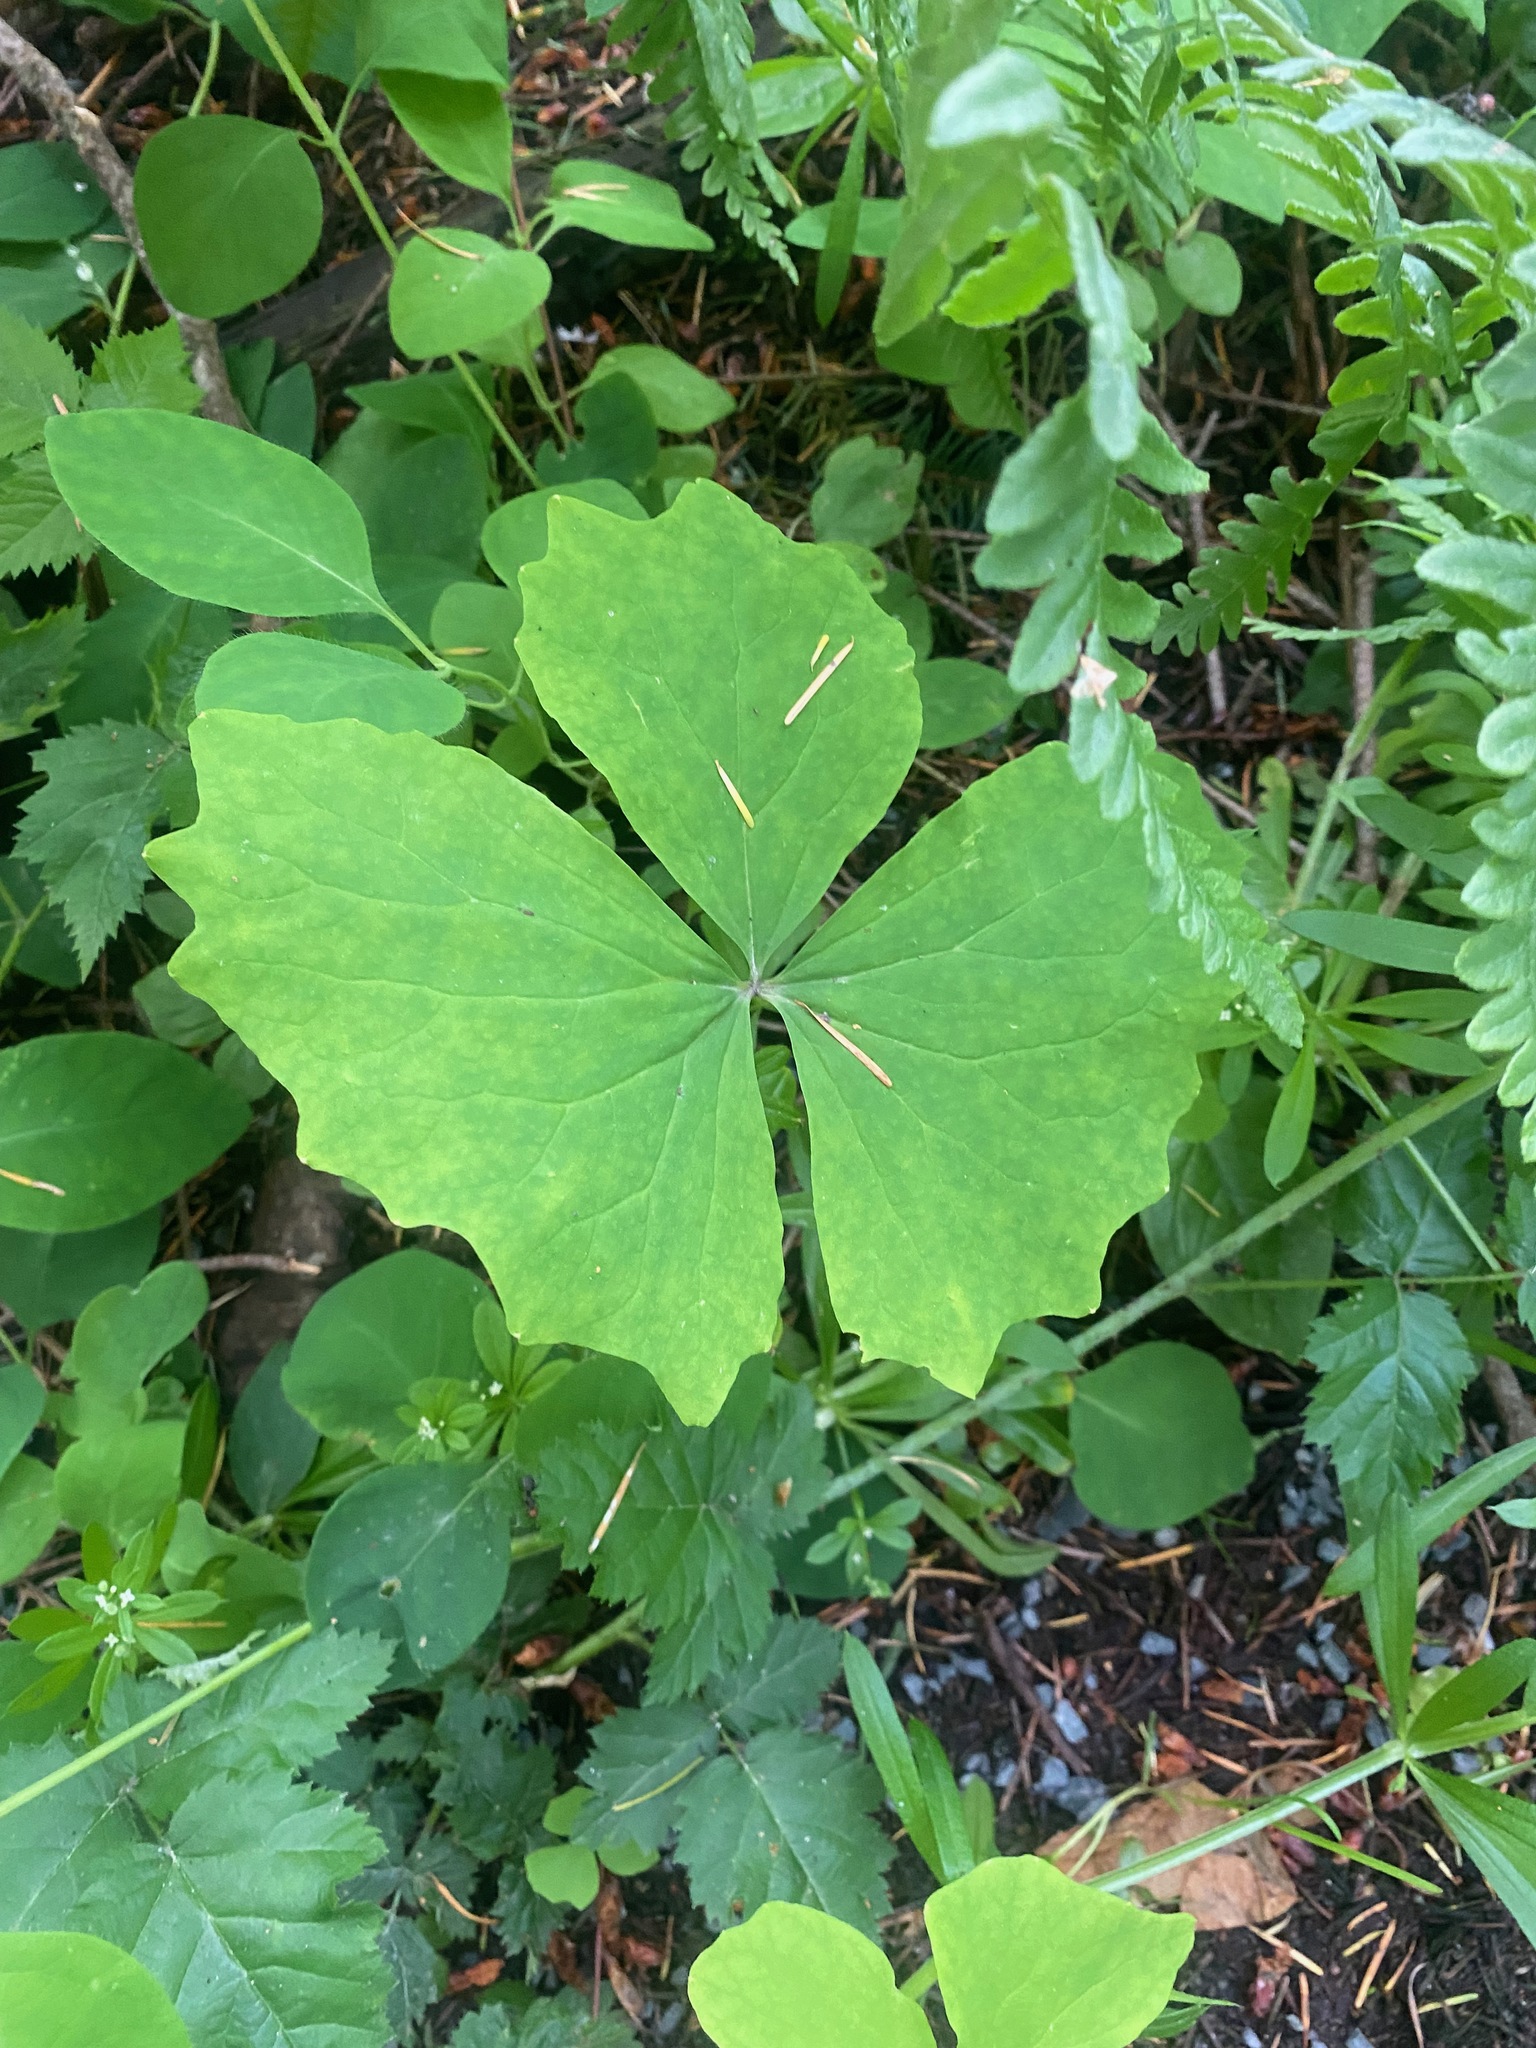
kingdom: Plantae
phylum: Tracheophyta
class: Magnoliopsida
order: Ranunculales
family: Berberidaceae
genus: Achlys
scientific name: Achlys triphylla
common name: Vanilla-leaf
